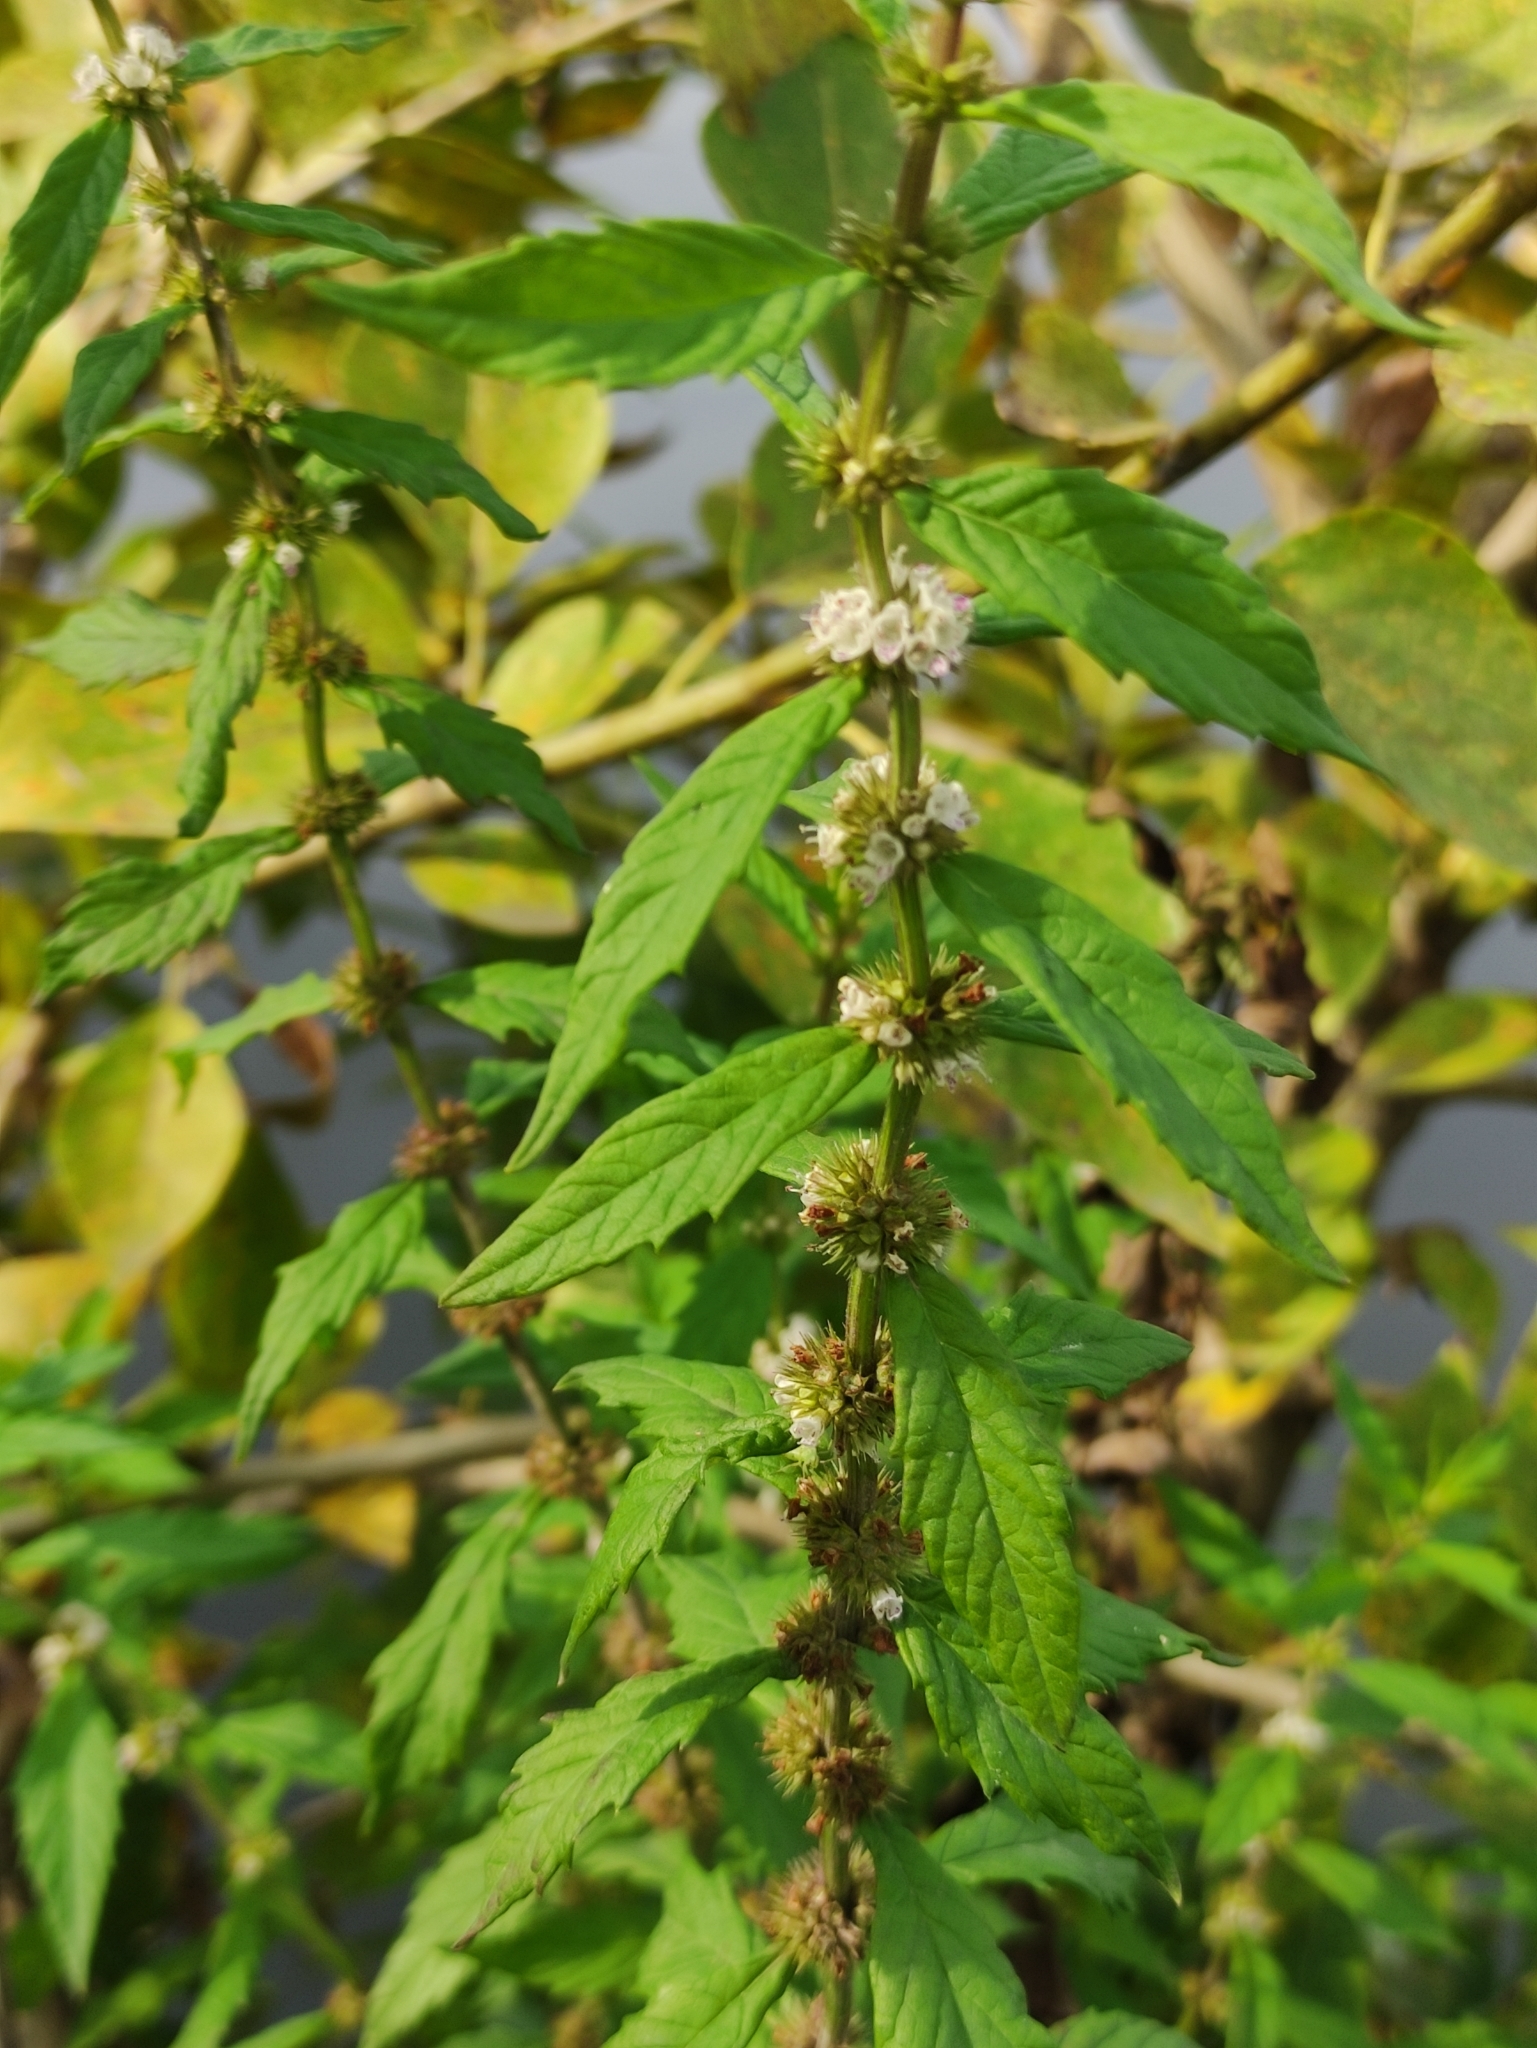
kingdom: Plantae
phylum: Tracheophyta
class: Magnoliopsida
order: Lamiales
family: Lamiaceae
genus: Lycopus
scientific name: Lycopus europaeus
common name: European bugleweed
